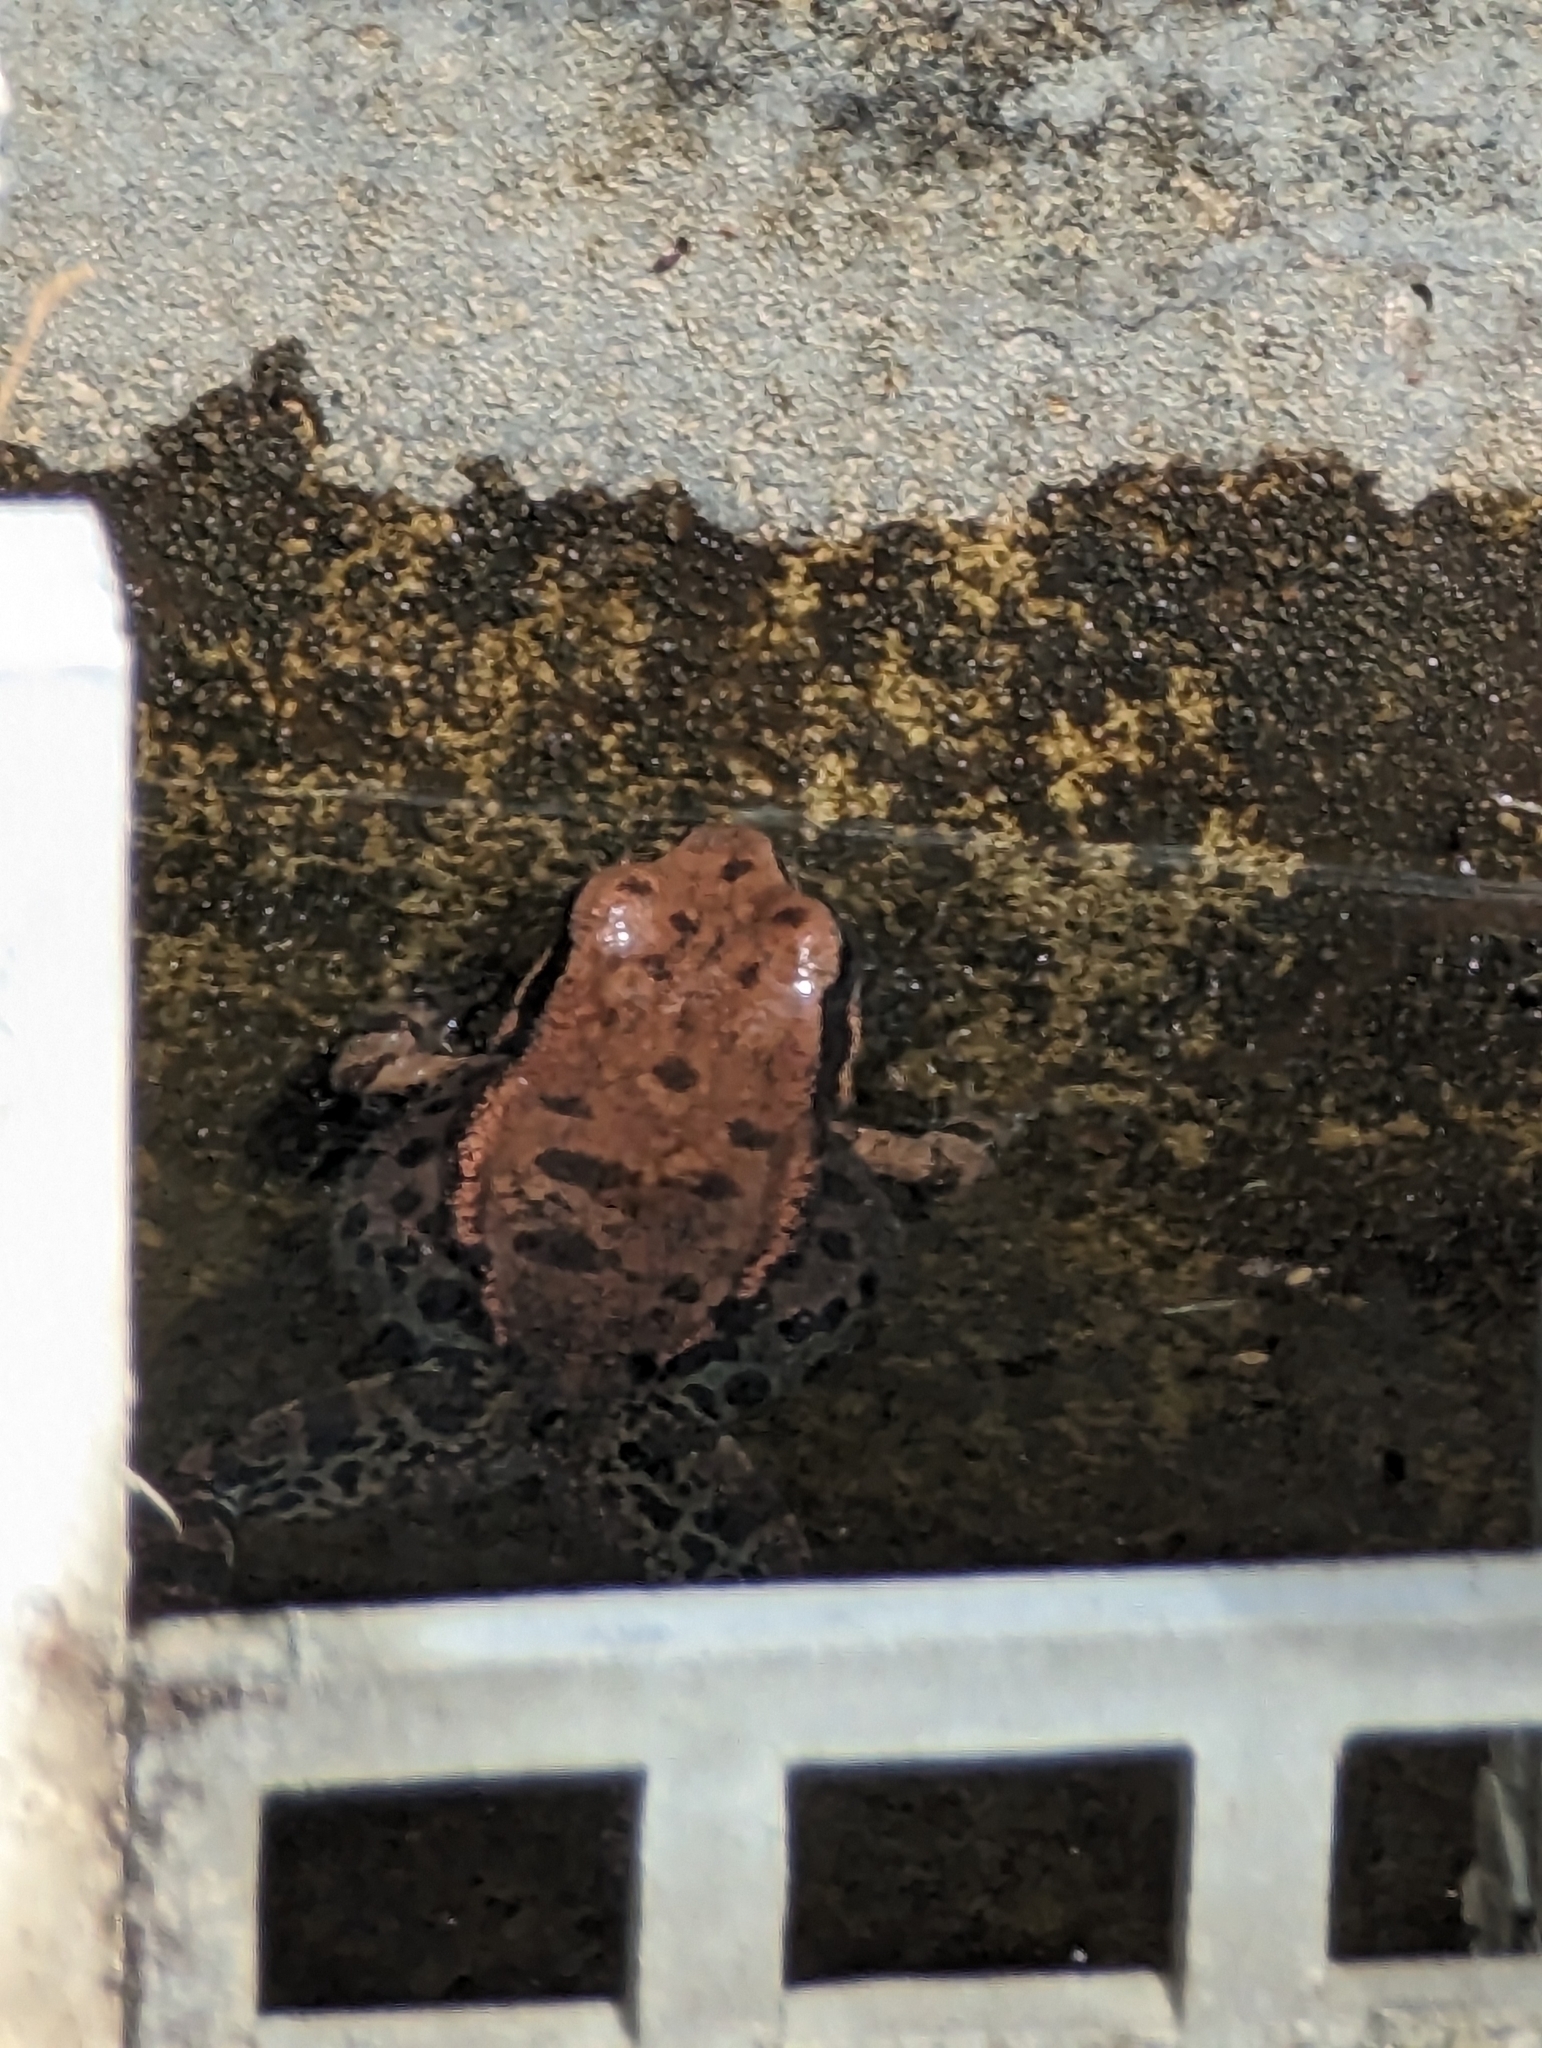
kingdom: Animalia
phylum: Chordata
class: Amphibia
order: Anura
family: Ranidae
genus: Hylarana
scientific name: Hylarana latouchii
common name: Broad-folded frog
